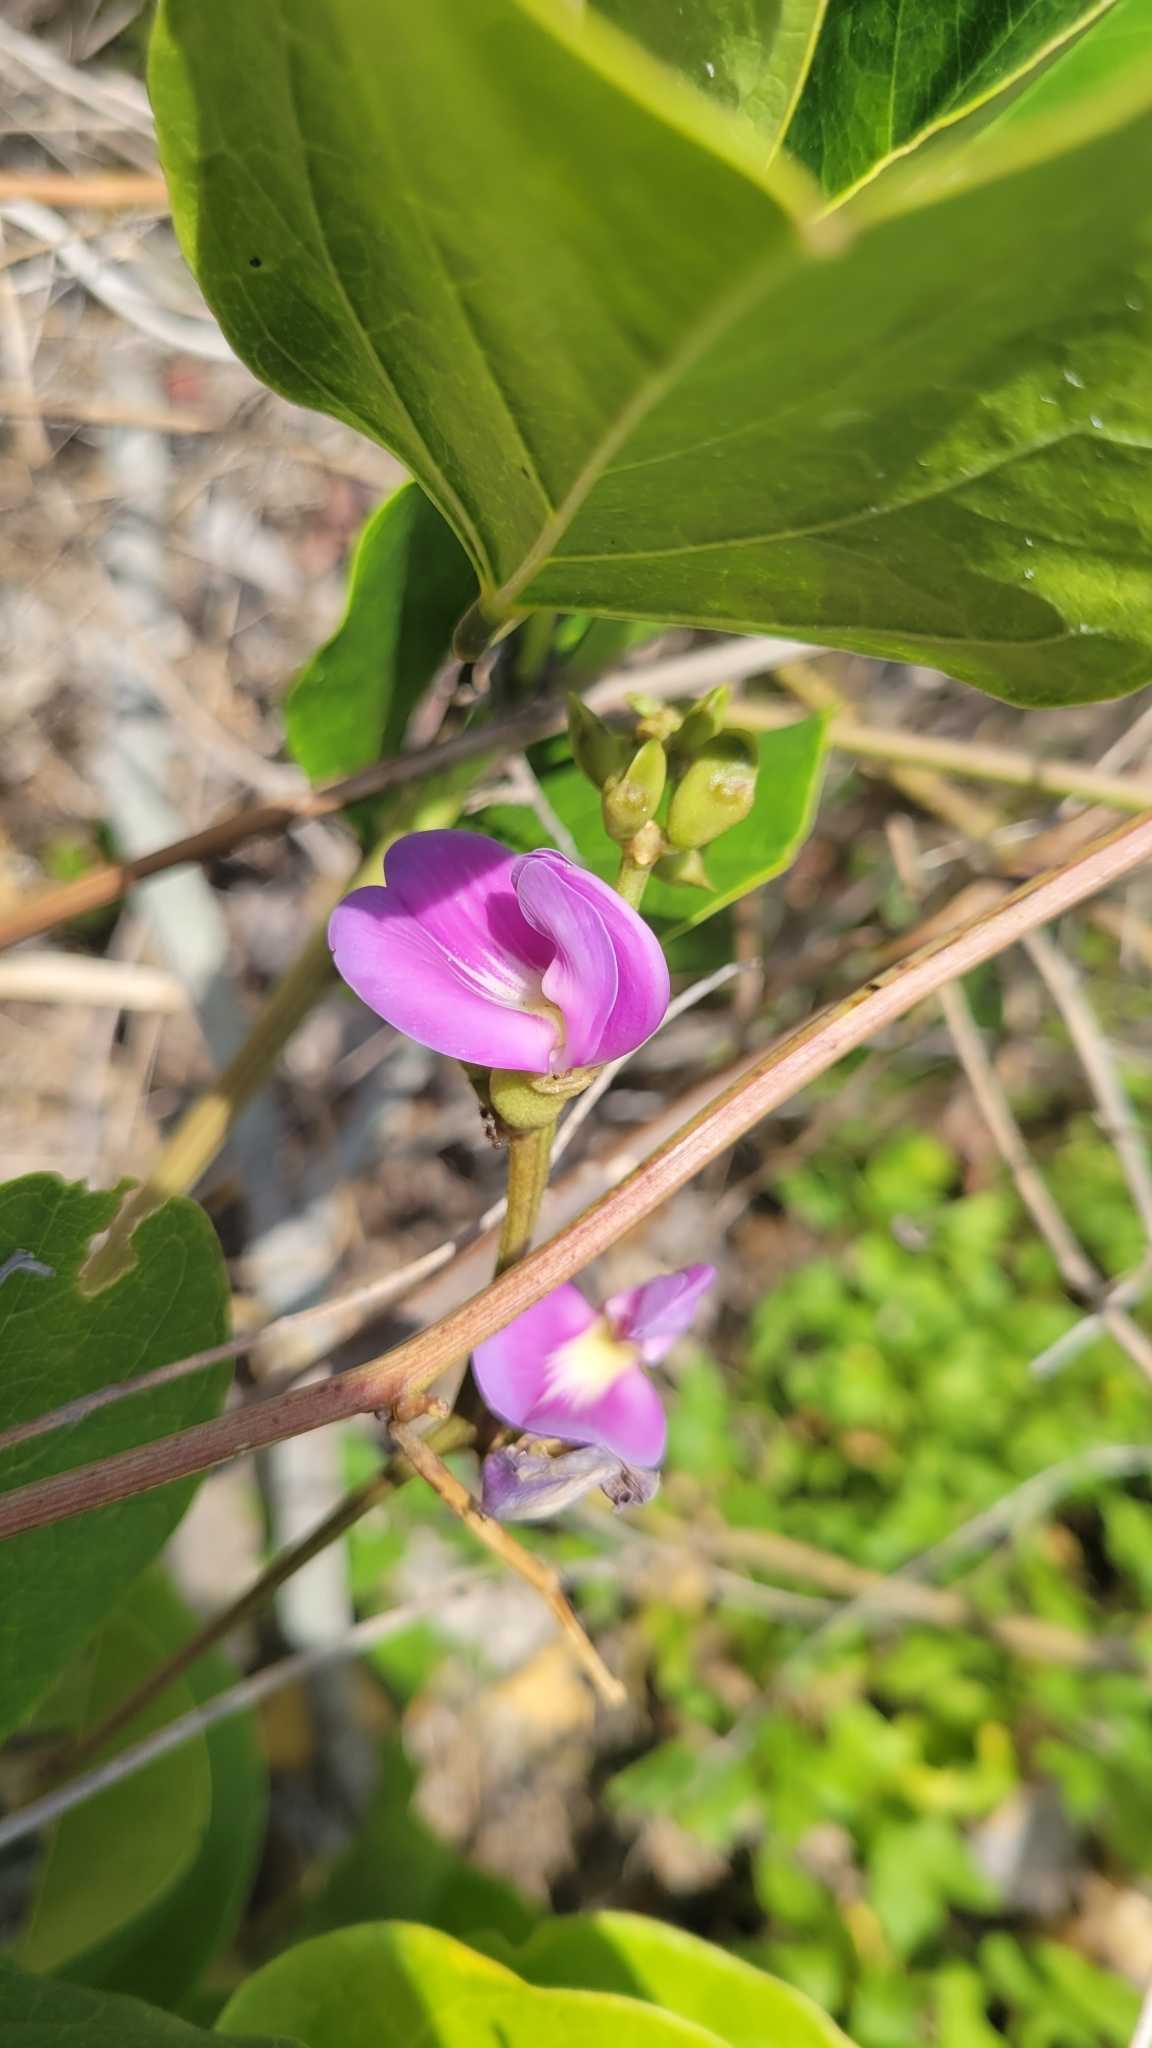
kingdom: Plantae
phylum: Tracheophyta
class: Magnoliopsida
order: Fabales
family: Fabaceae
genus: Canavalia
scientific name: Canavalia rosea
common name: Beach-bean
